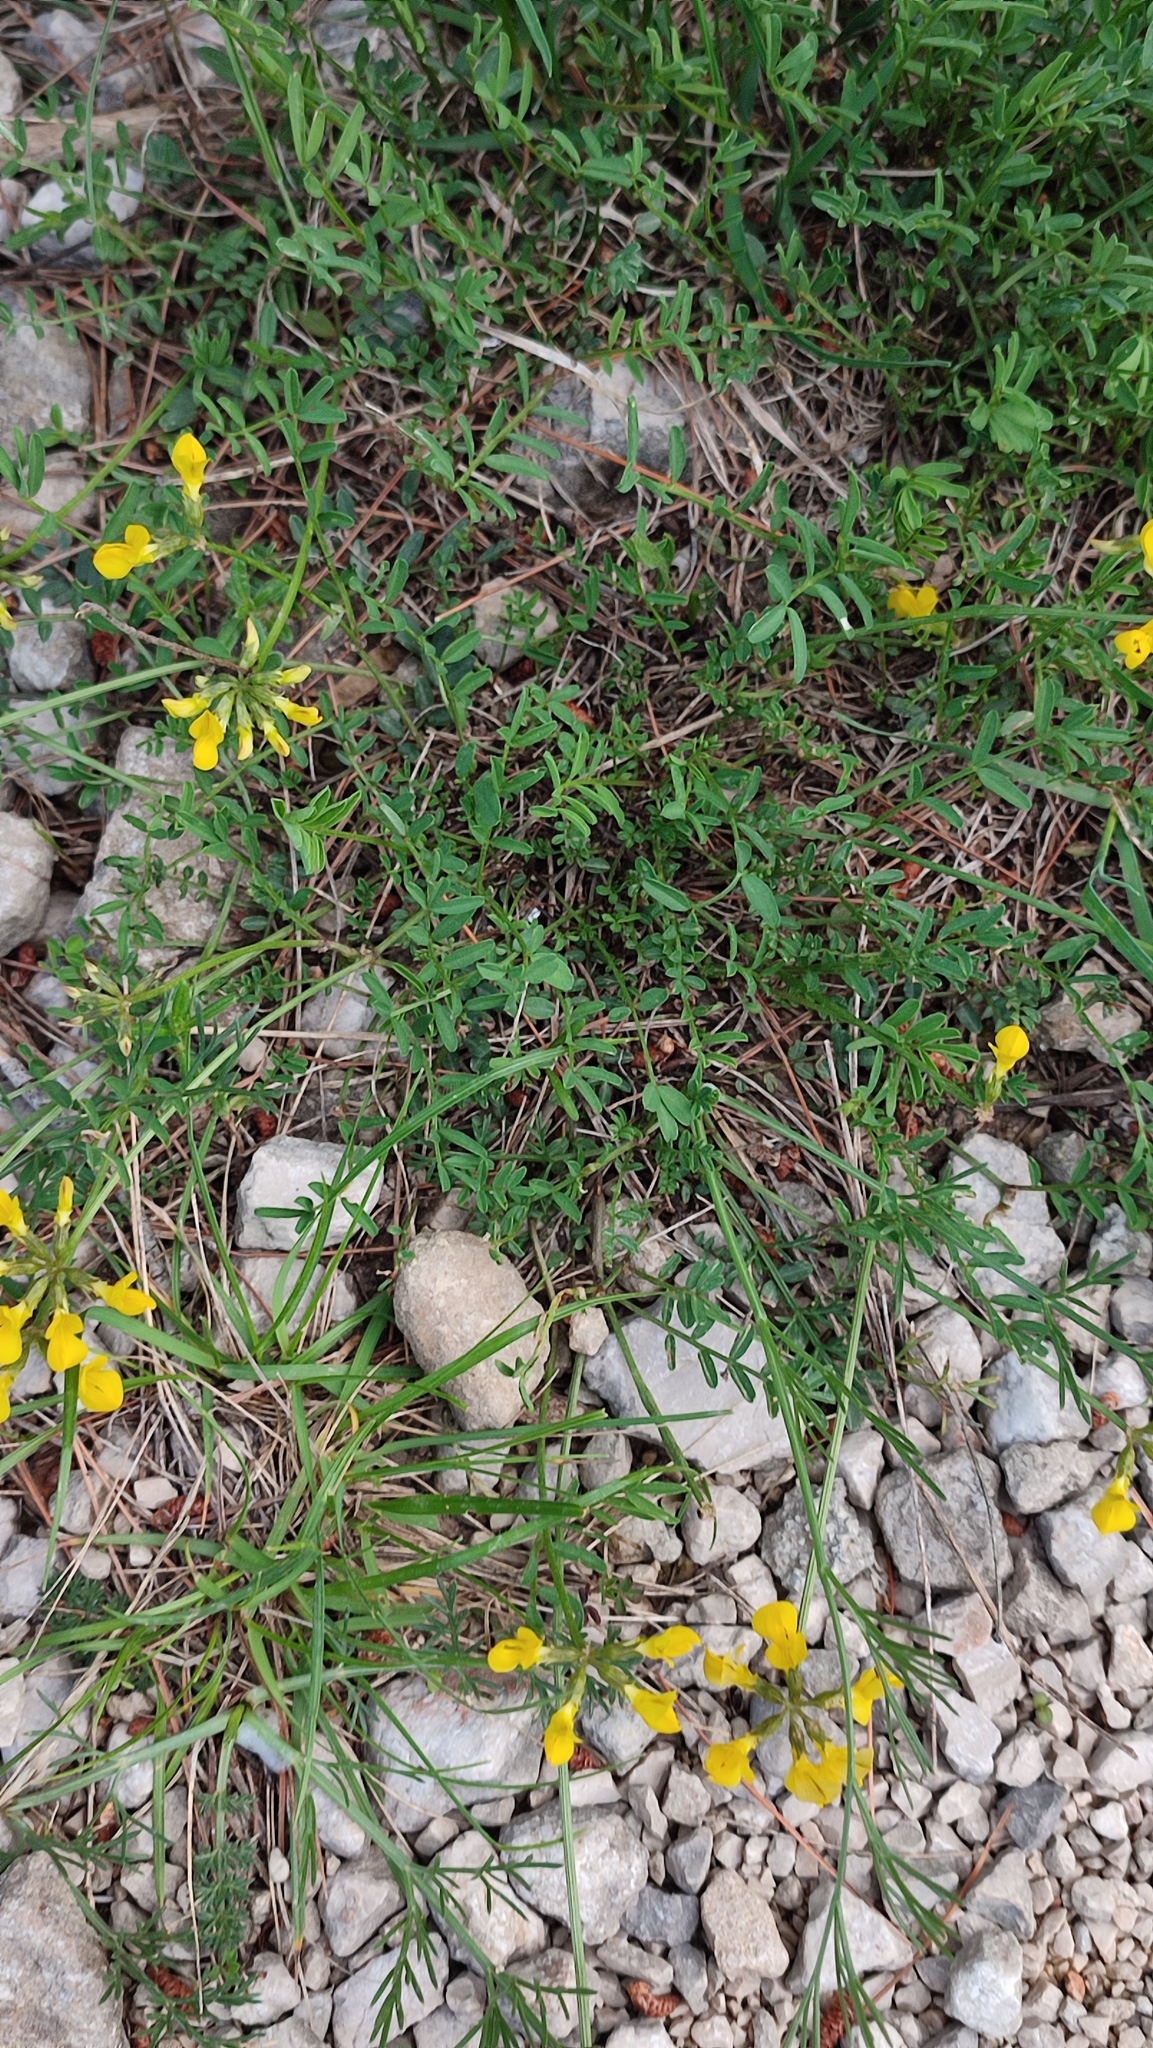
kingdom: Plantae
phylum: Tracheophyta
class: Magnoliopsida
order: Fabales
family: Fabaceae
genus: Hippocrepis
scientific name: Hippocrepis comosa
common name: Horseshoe vetch
